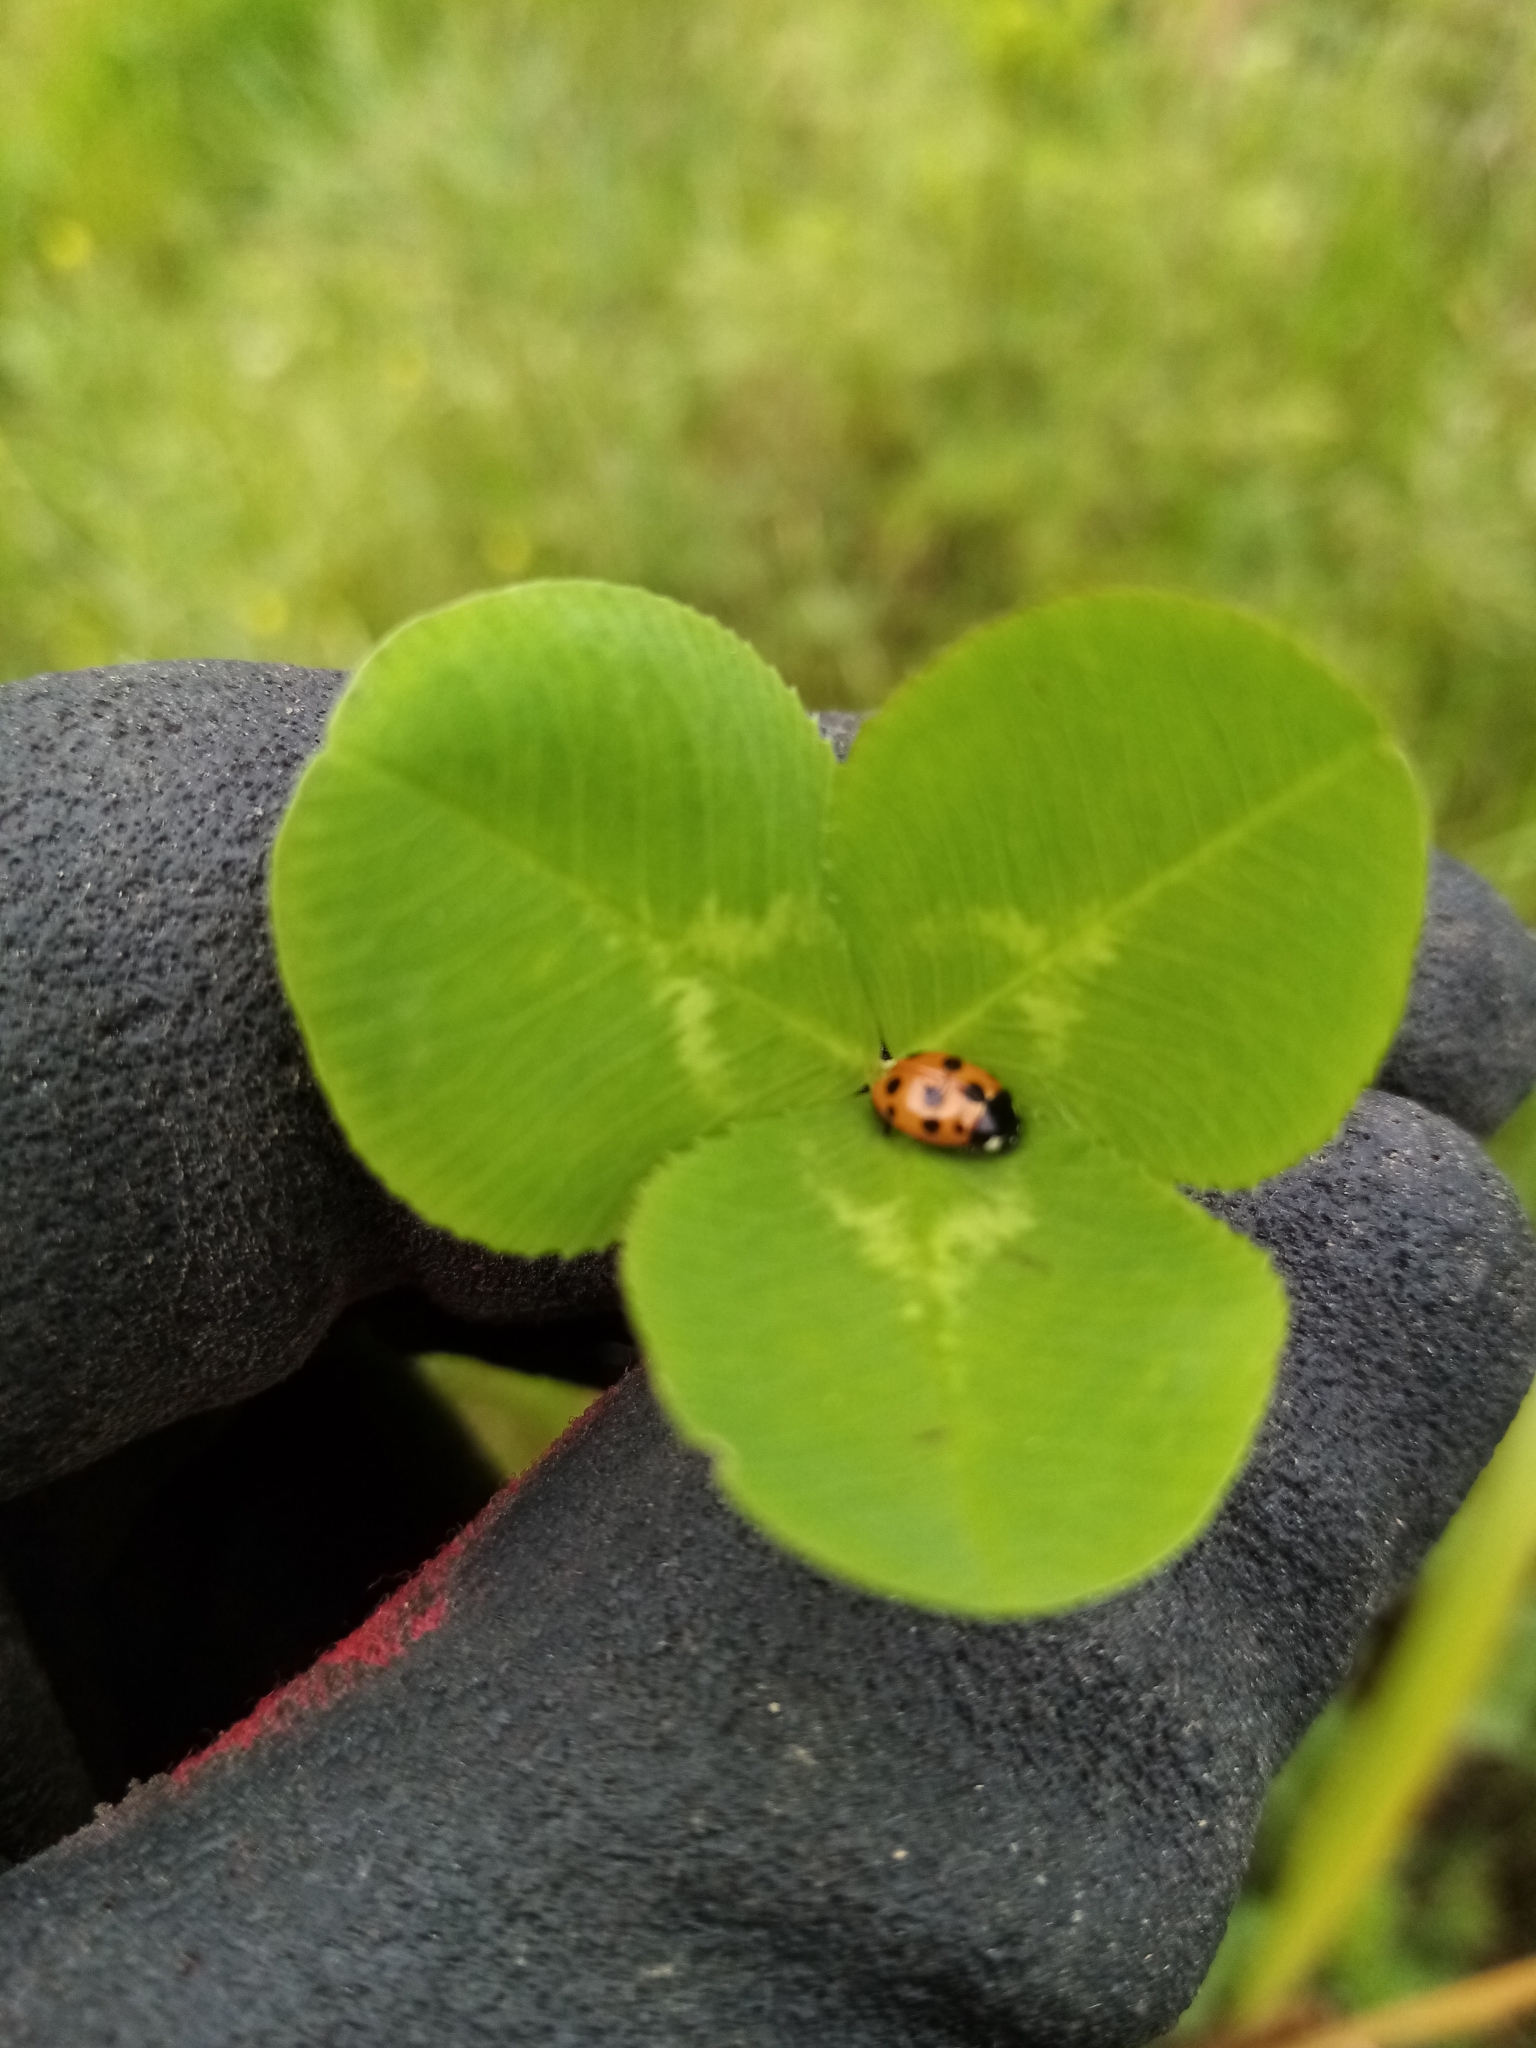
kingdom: Animalia
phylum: Arthropoda
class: Insecta
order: Coleoptera
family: Coccinellidae
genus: Coccinella
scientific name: Coccinella undecimpunctata
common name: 11-spot ladybird
